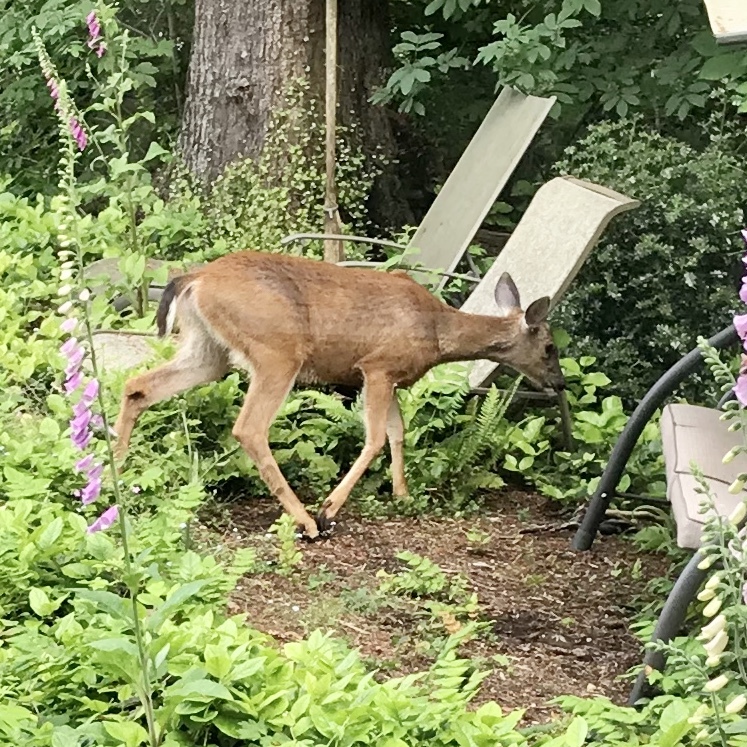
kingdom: Animalia
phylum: Chordata
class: Mammalia
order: Artiodactyla
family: Cervidae
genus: Odocoileus
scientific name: Odocoileus hemionus
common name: Mule deer
